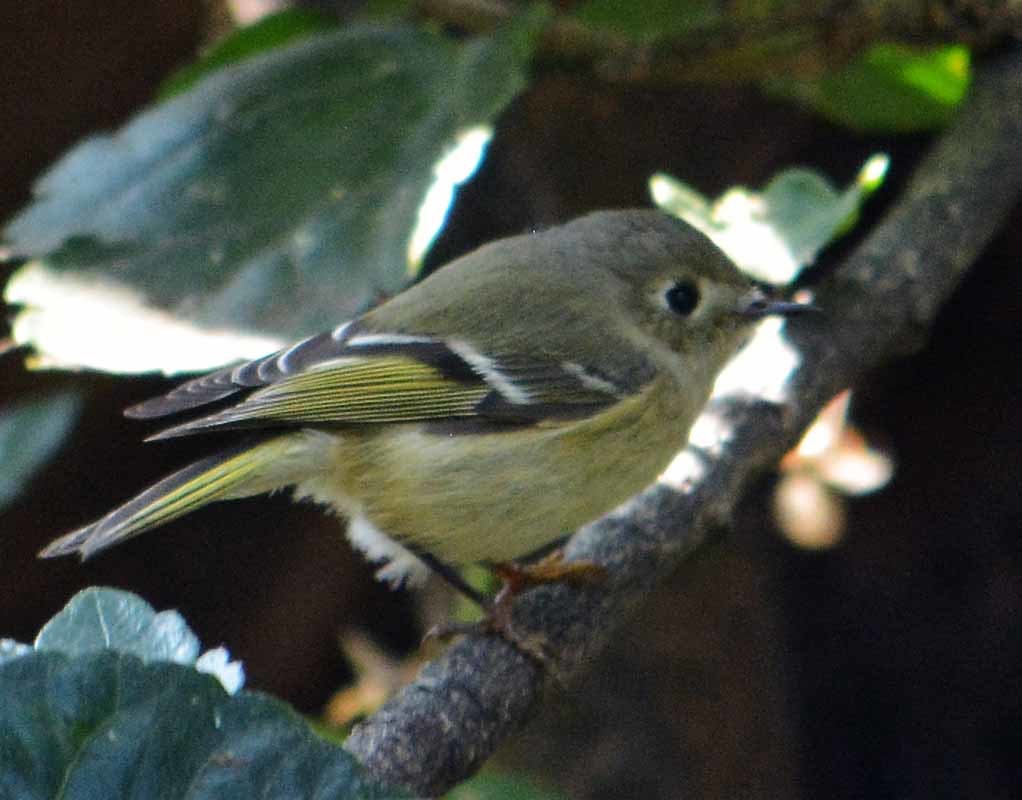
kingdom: Animalia
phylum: Chordata
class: Aves
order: Passeriformes
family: Regulidae
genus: Regulus
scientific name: Regulus calendula
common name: Ruby-crowned kinglet
